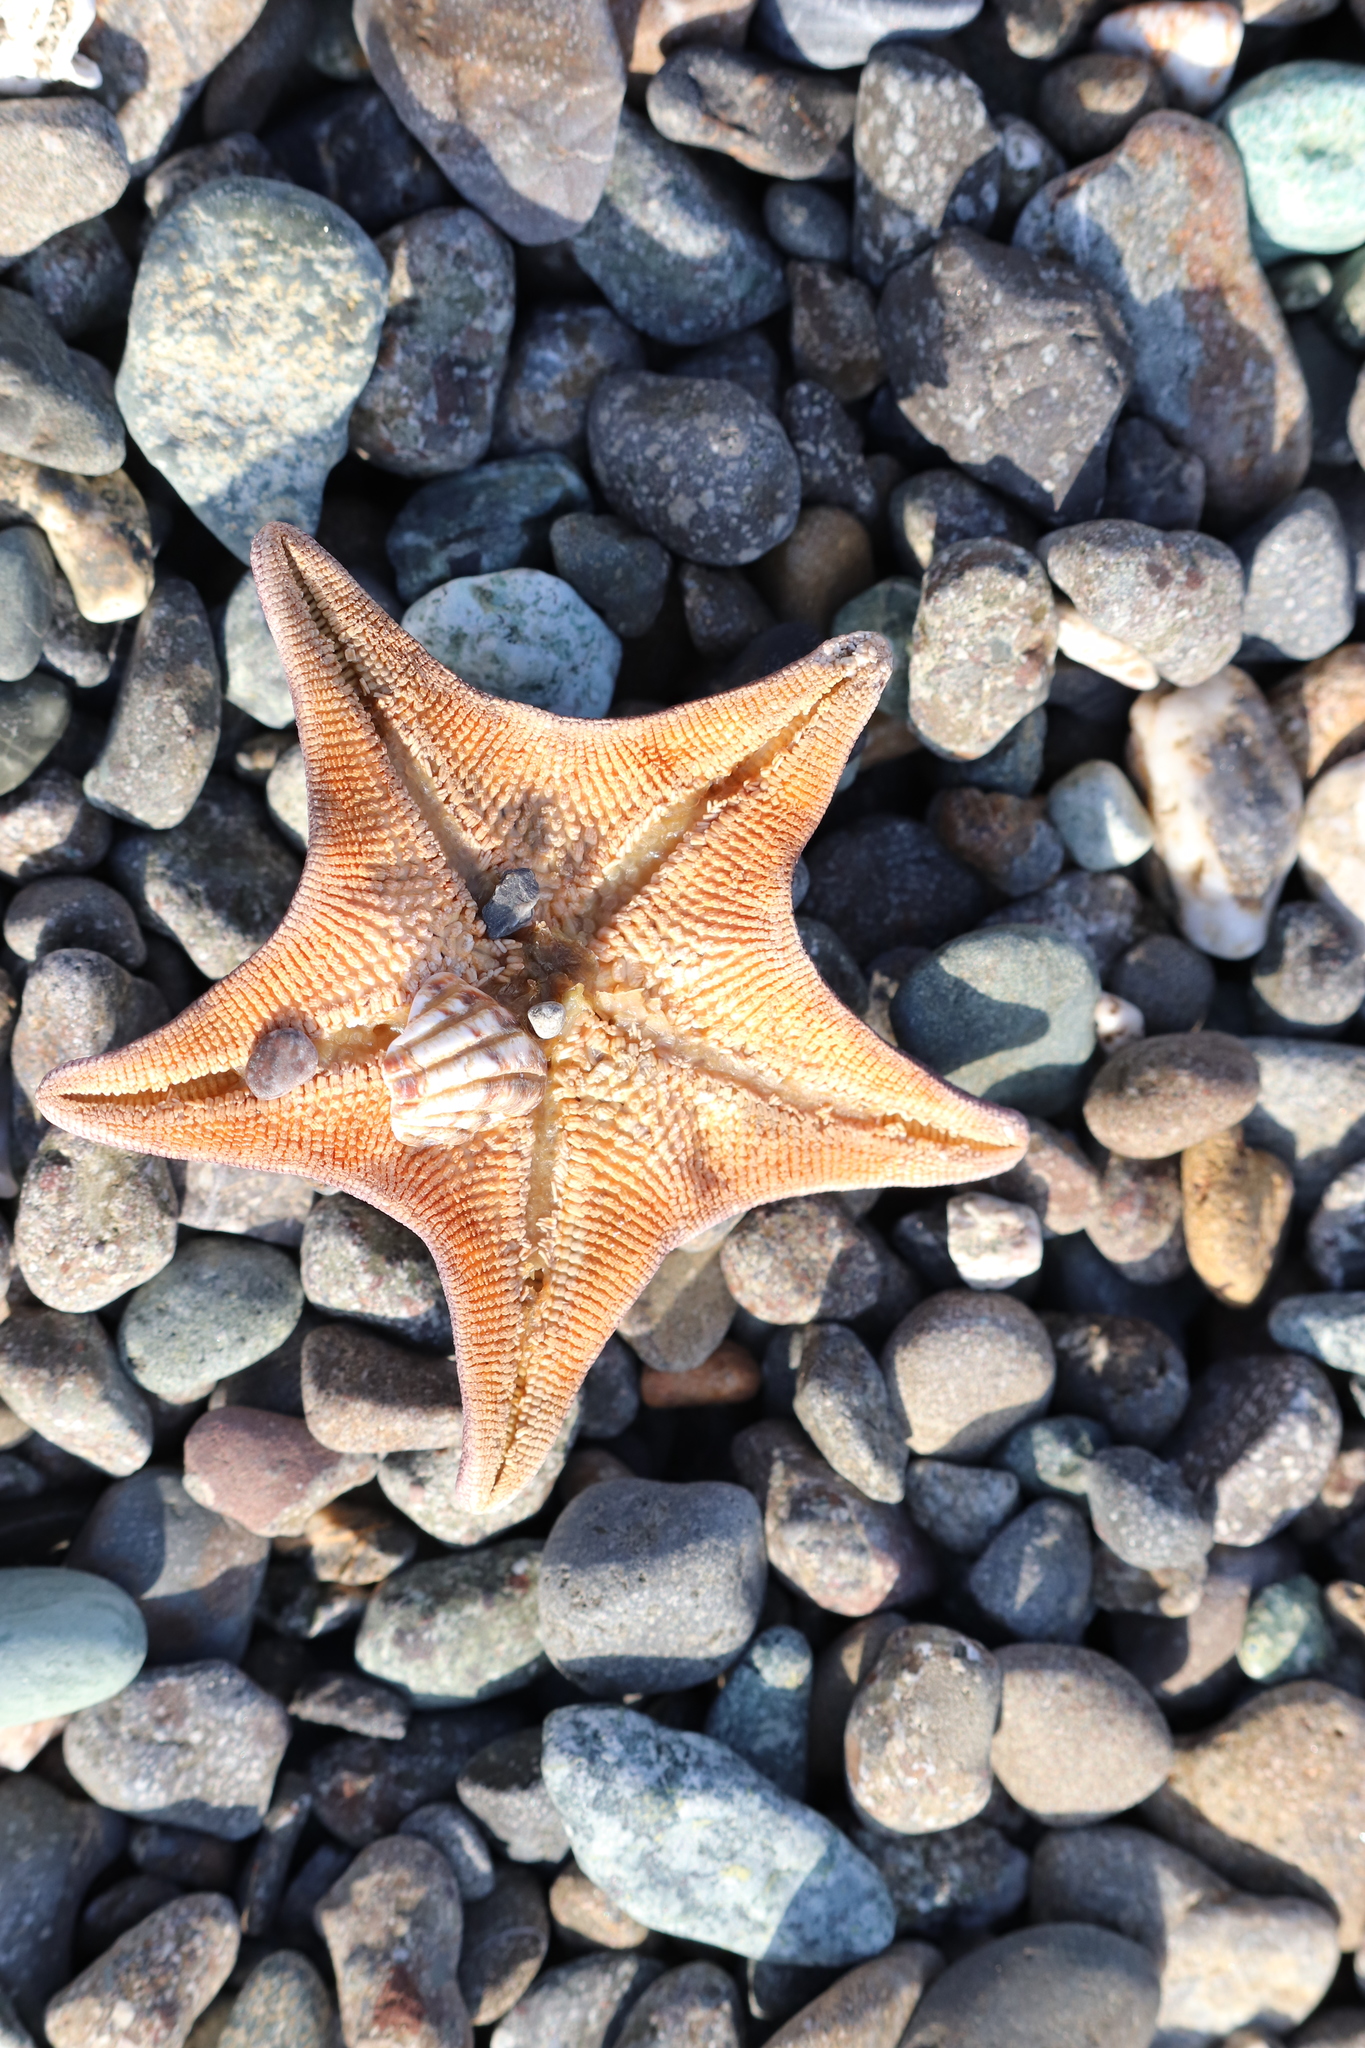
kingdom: Animalia
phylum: Echinodermata
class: Asteroidea
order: Valvatida
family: Asterinidae
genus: Patiria
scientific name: Patiria pectinifera
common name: Blue bat star
